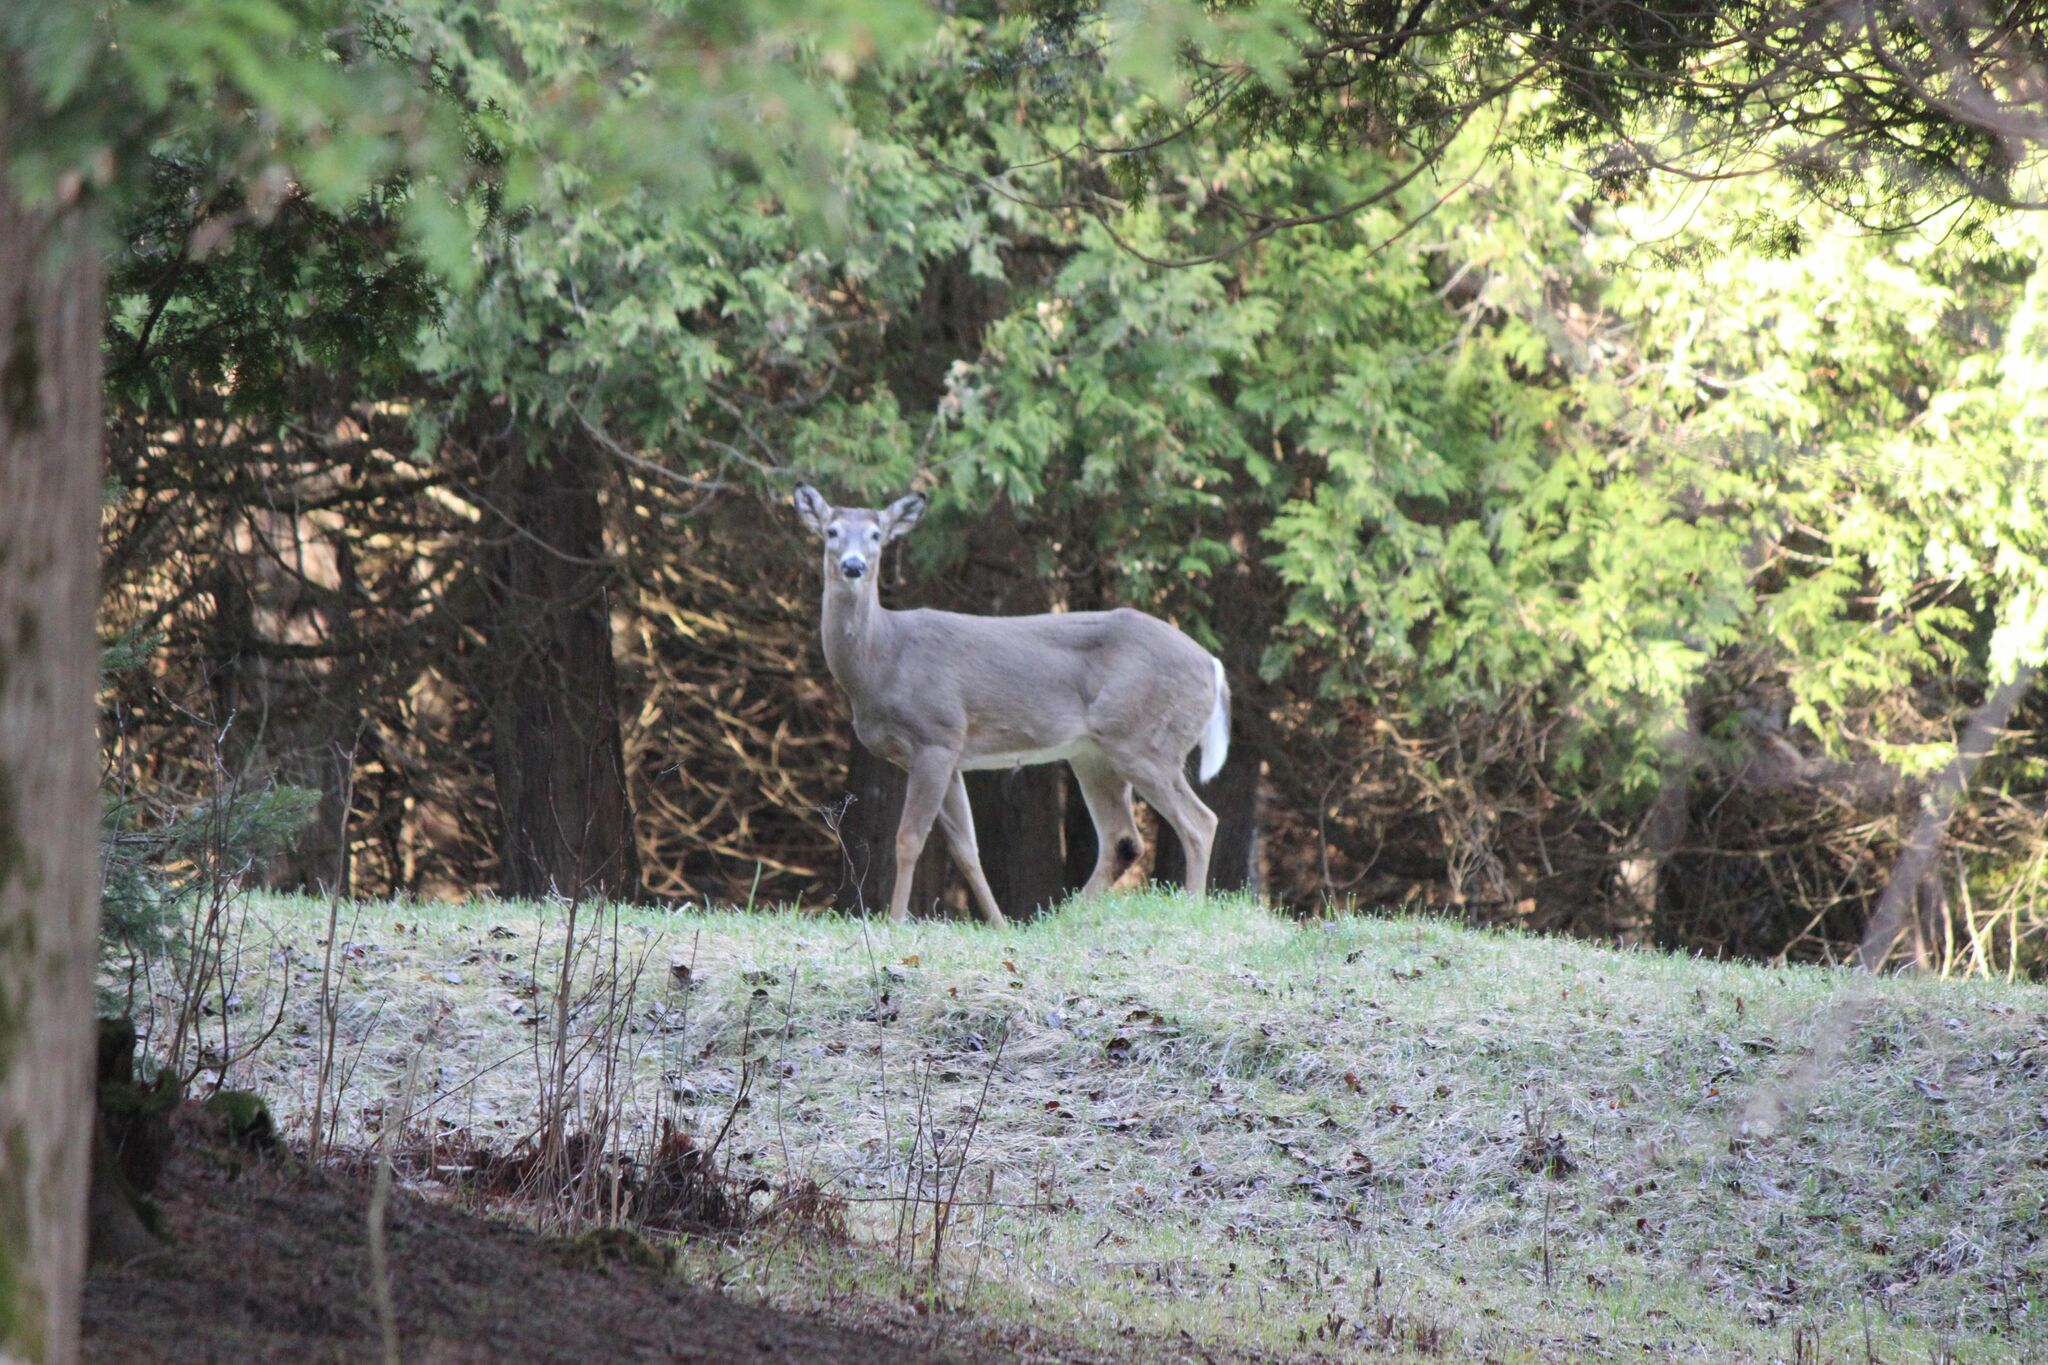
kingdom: Animalia
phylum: Chordata
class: Mammalia
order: Artiodactyla
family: Cervidae
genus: Odocoileus
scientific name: Odocoileus virginianus
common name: White-tailed deer
